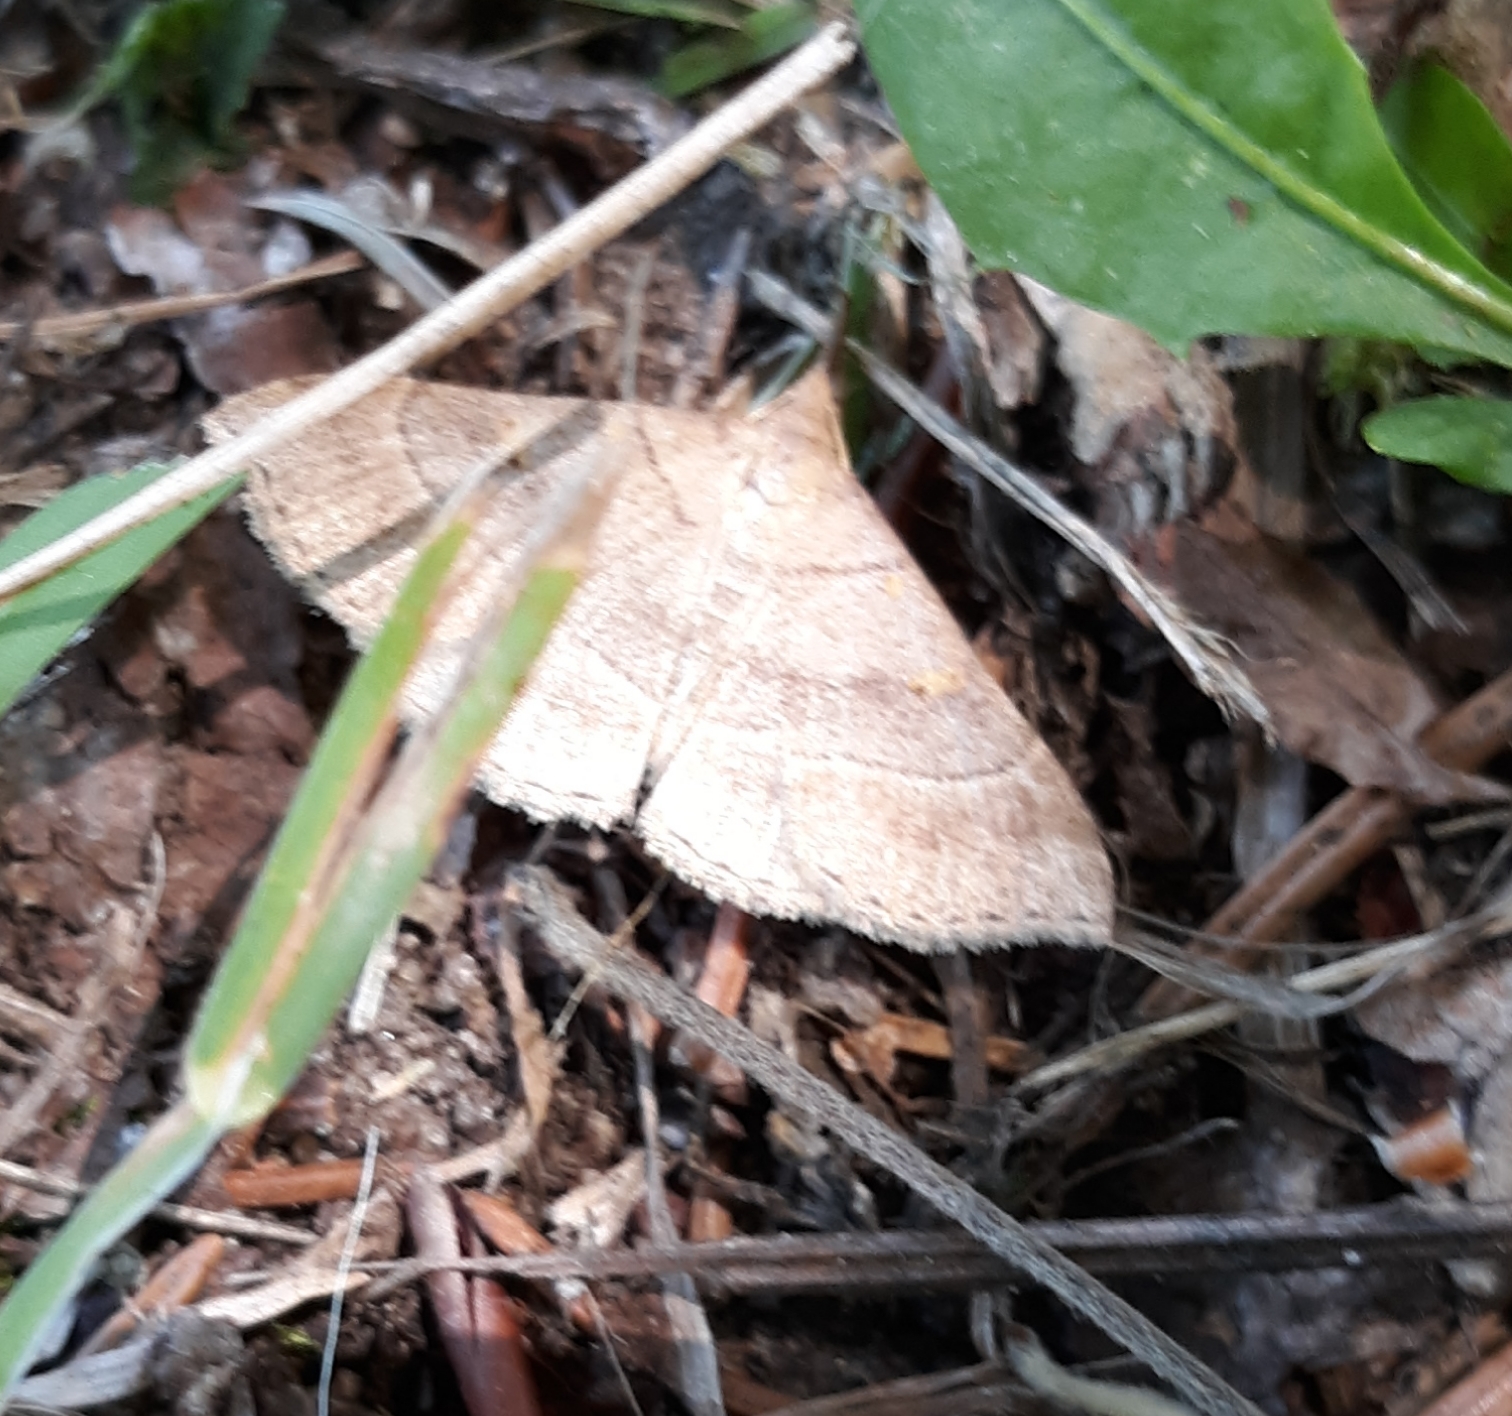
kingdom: Animalia
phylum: Arthropoda
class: Insecta
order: Lepidoptera
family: Erebidae
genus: Renia
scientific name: Renia flavipunctalis
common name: Yellow-spotted renia moth
